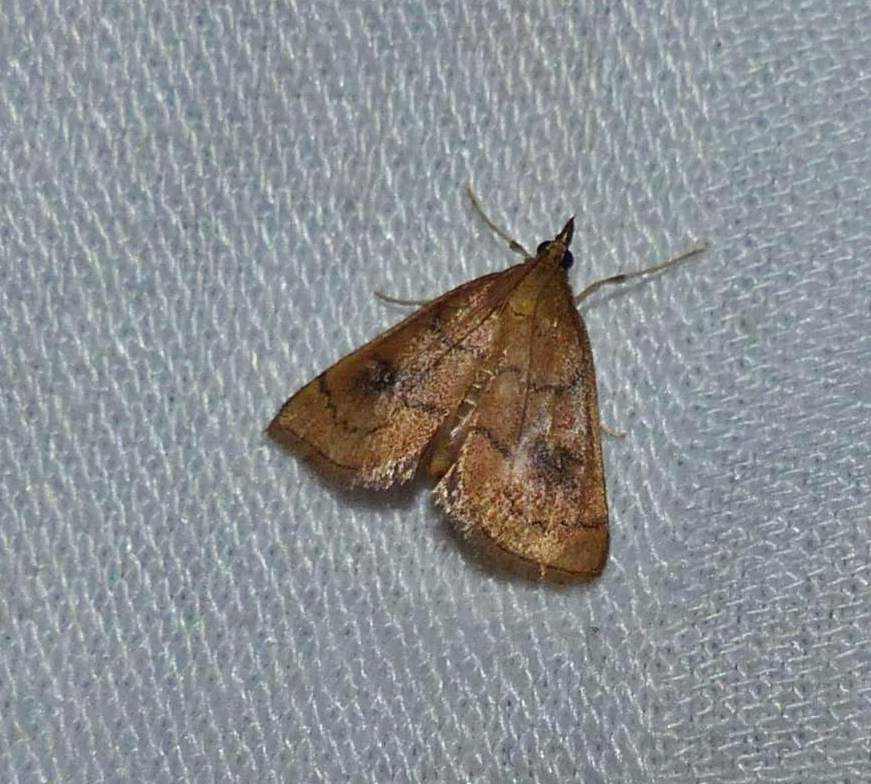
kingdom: Animalia
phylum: Arthropoda
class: Insecta
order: Lepidoptera
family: Crambidae
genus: Fumibotys
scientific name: Fumibotys fumalis
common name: Mint root borer moth
